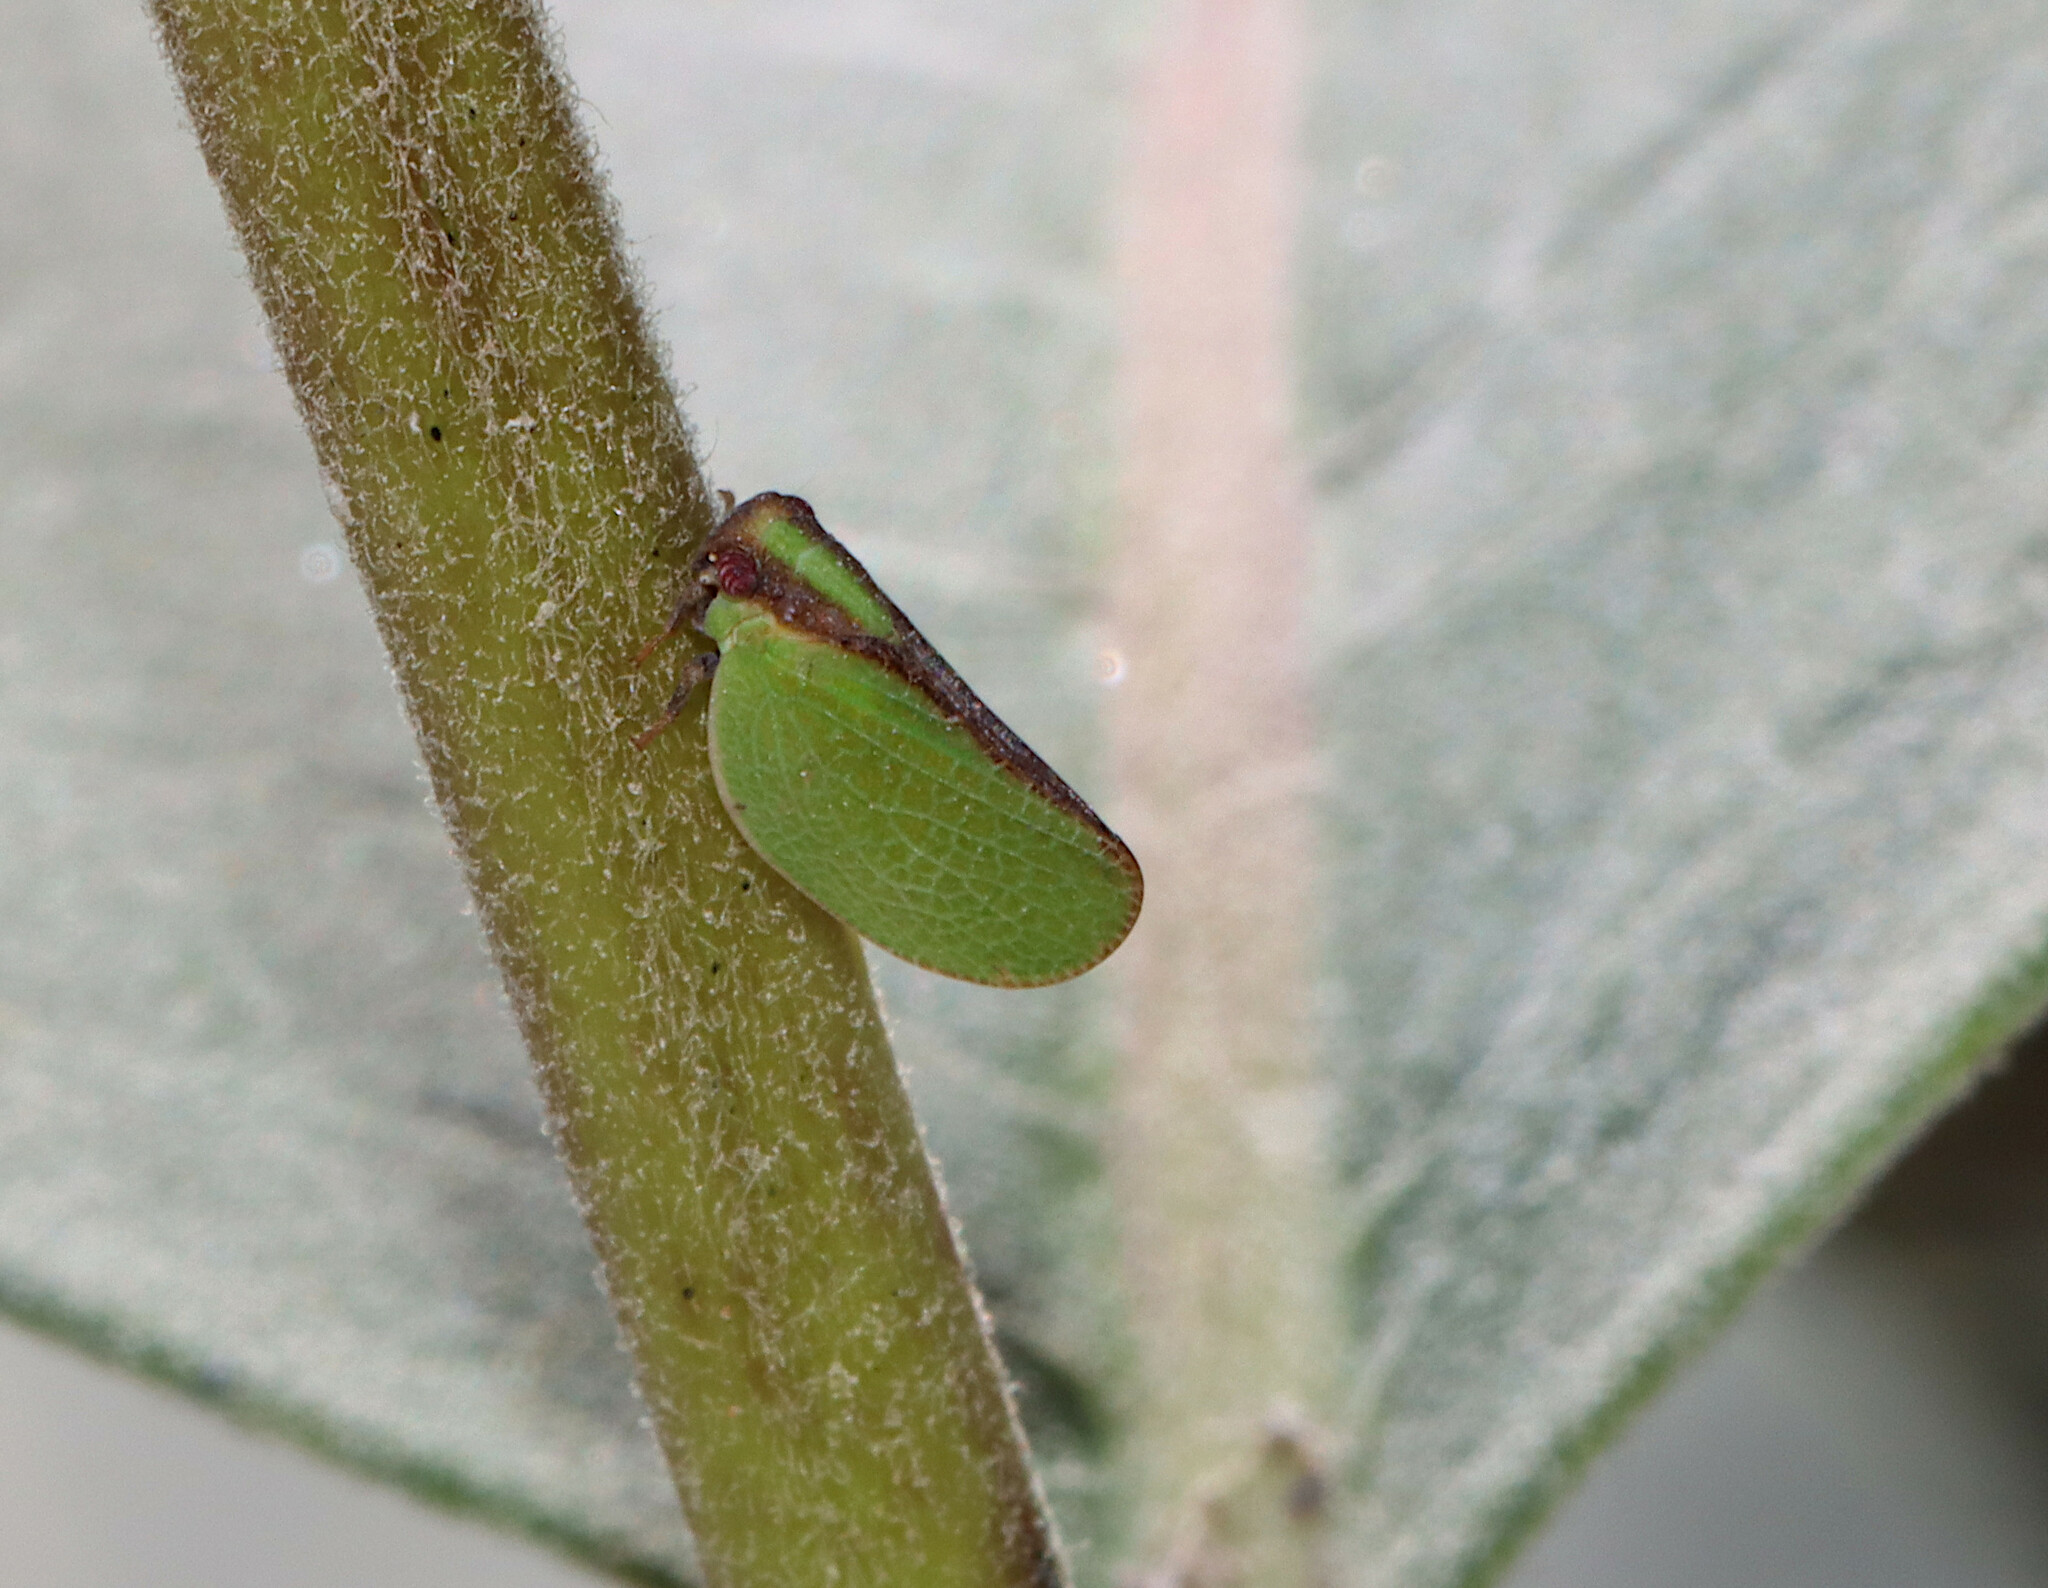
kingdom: Animalia
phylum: Arthropoda
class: Insecta
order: Hemiptera
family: Acanaloniidae
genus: Acanalonia
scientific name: Acanalonia bivittata
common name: Two-striped planthopper
